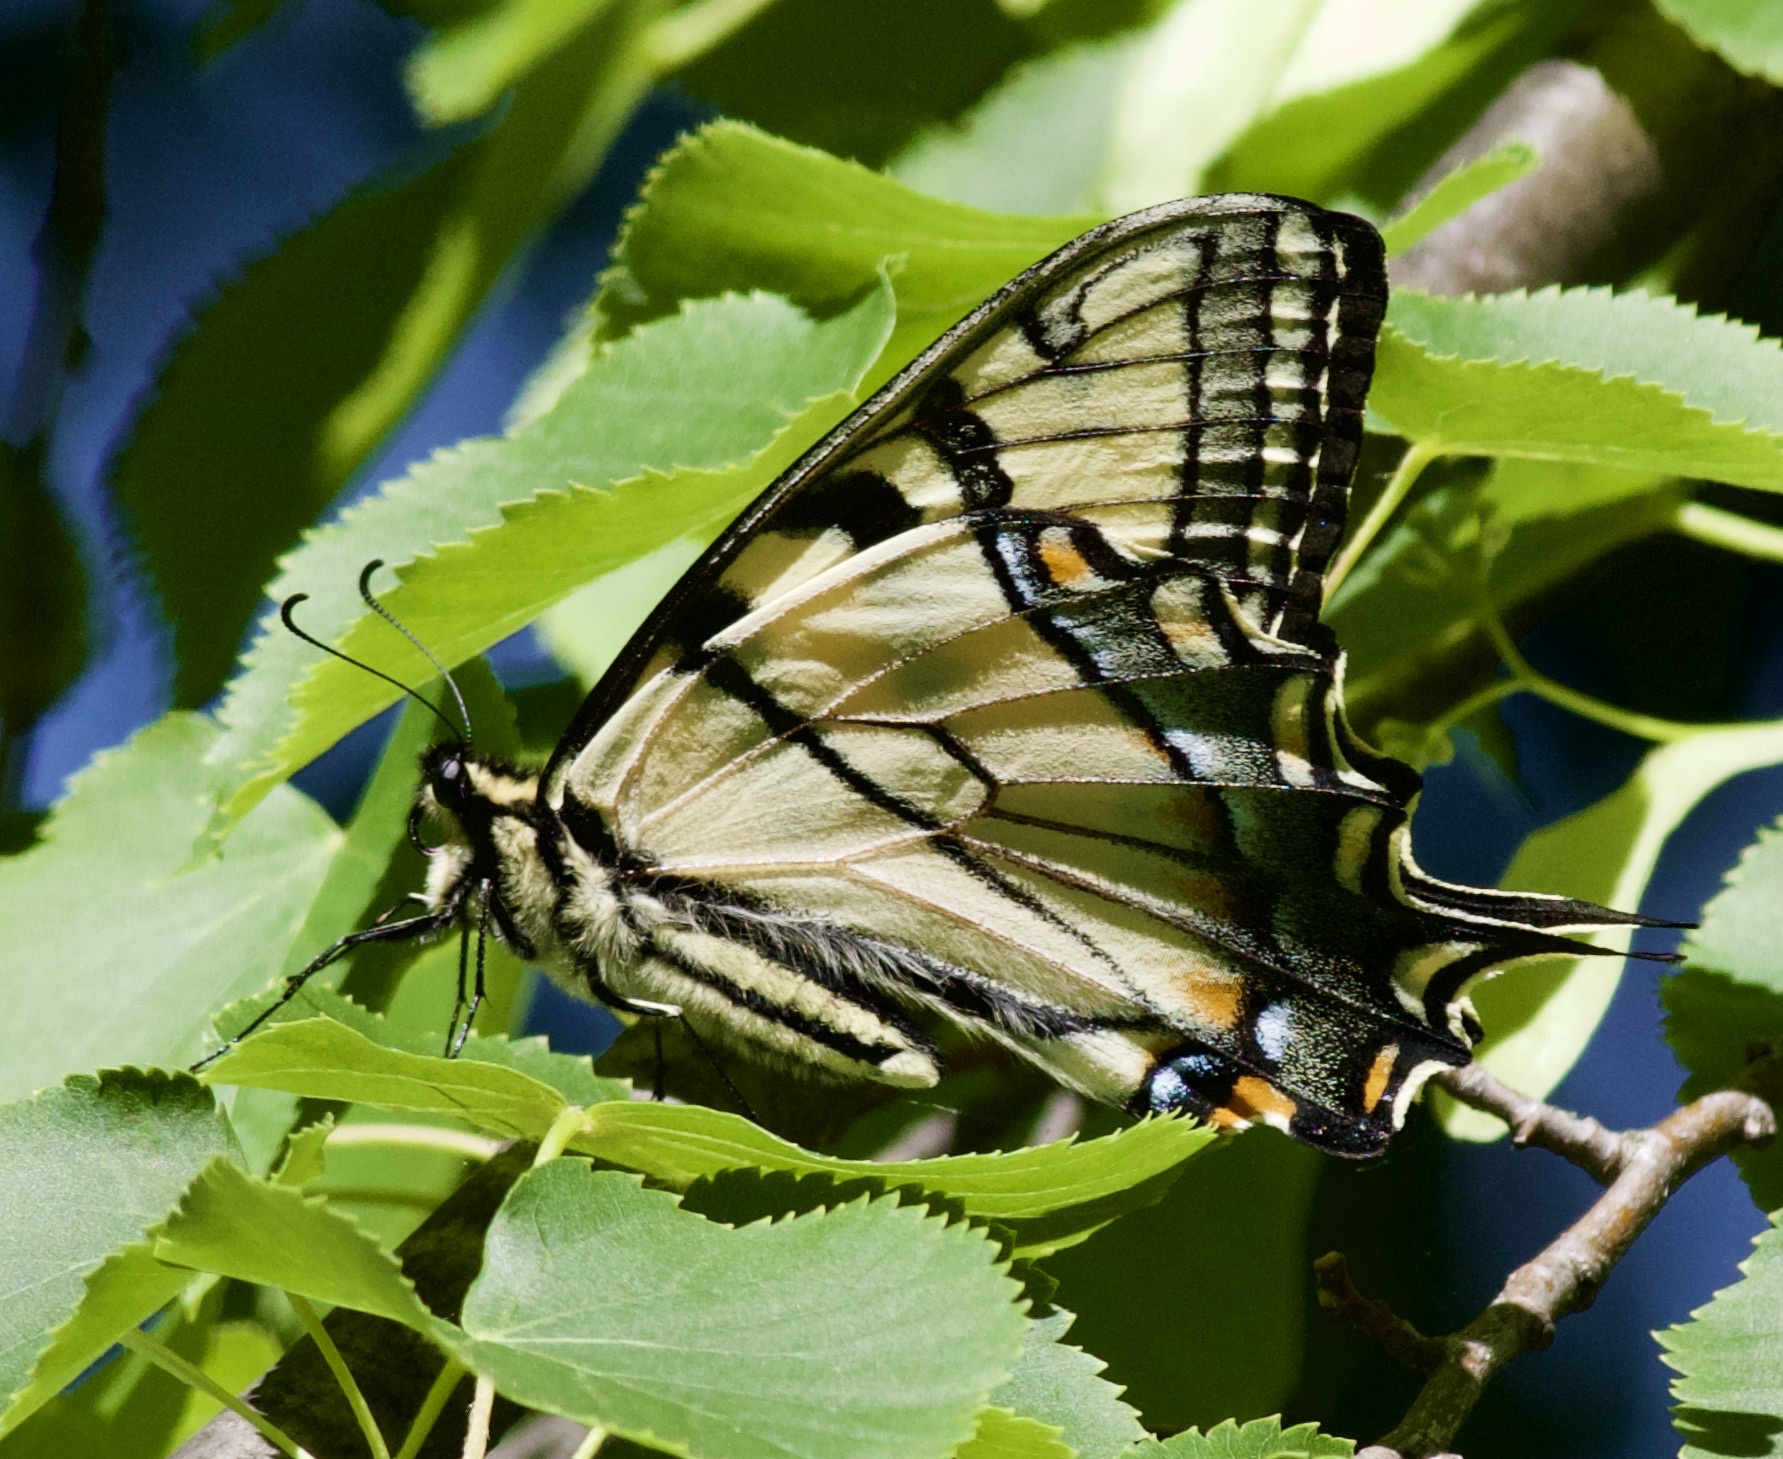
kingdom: Animalia
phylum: Arthropoda
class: Insecta
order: Lepidoptera
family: Papilionidae
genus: Papilio
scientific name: Papilio glaucus
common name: Tiger swallowtail
